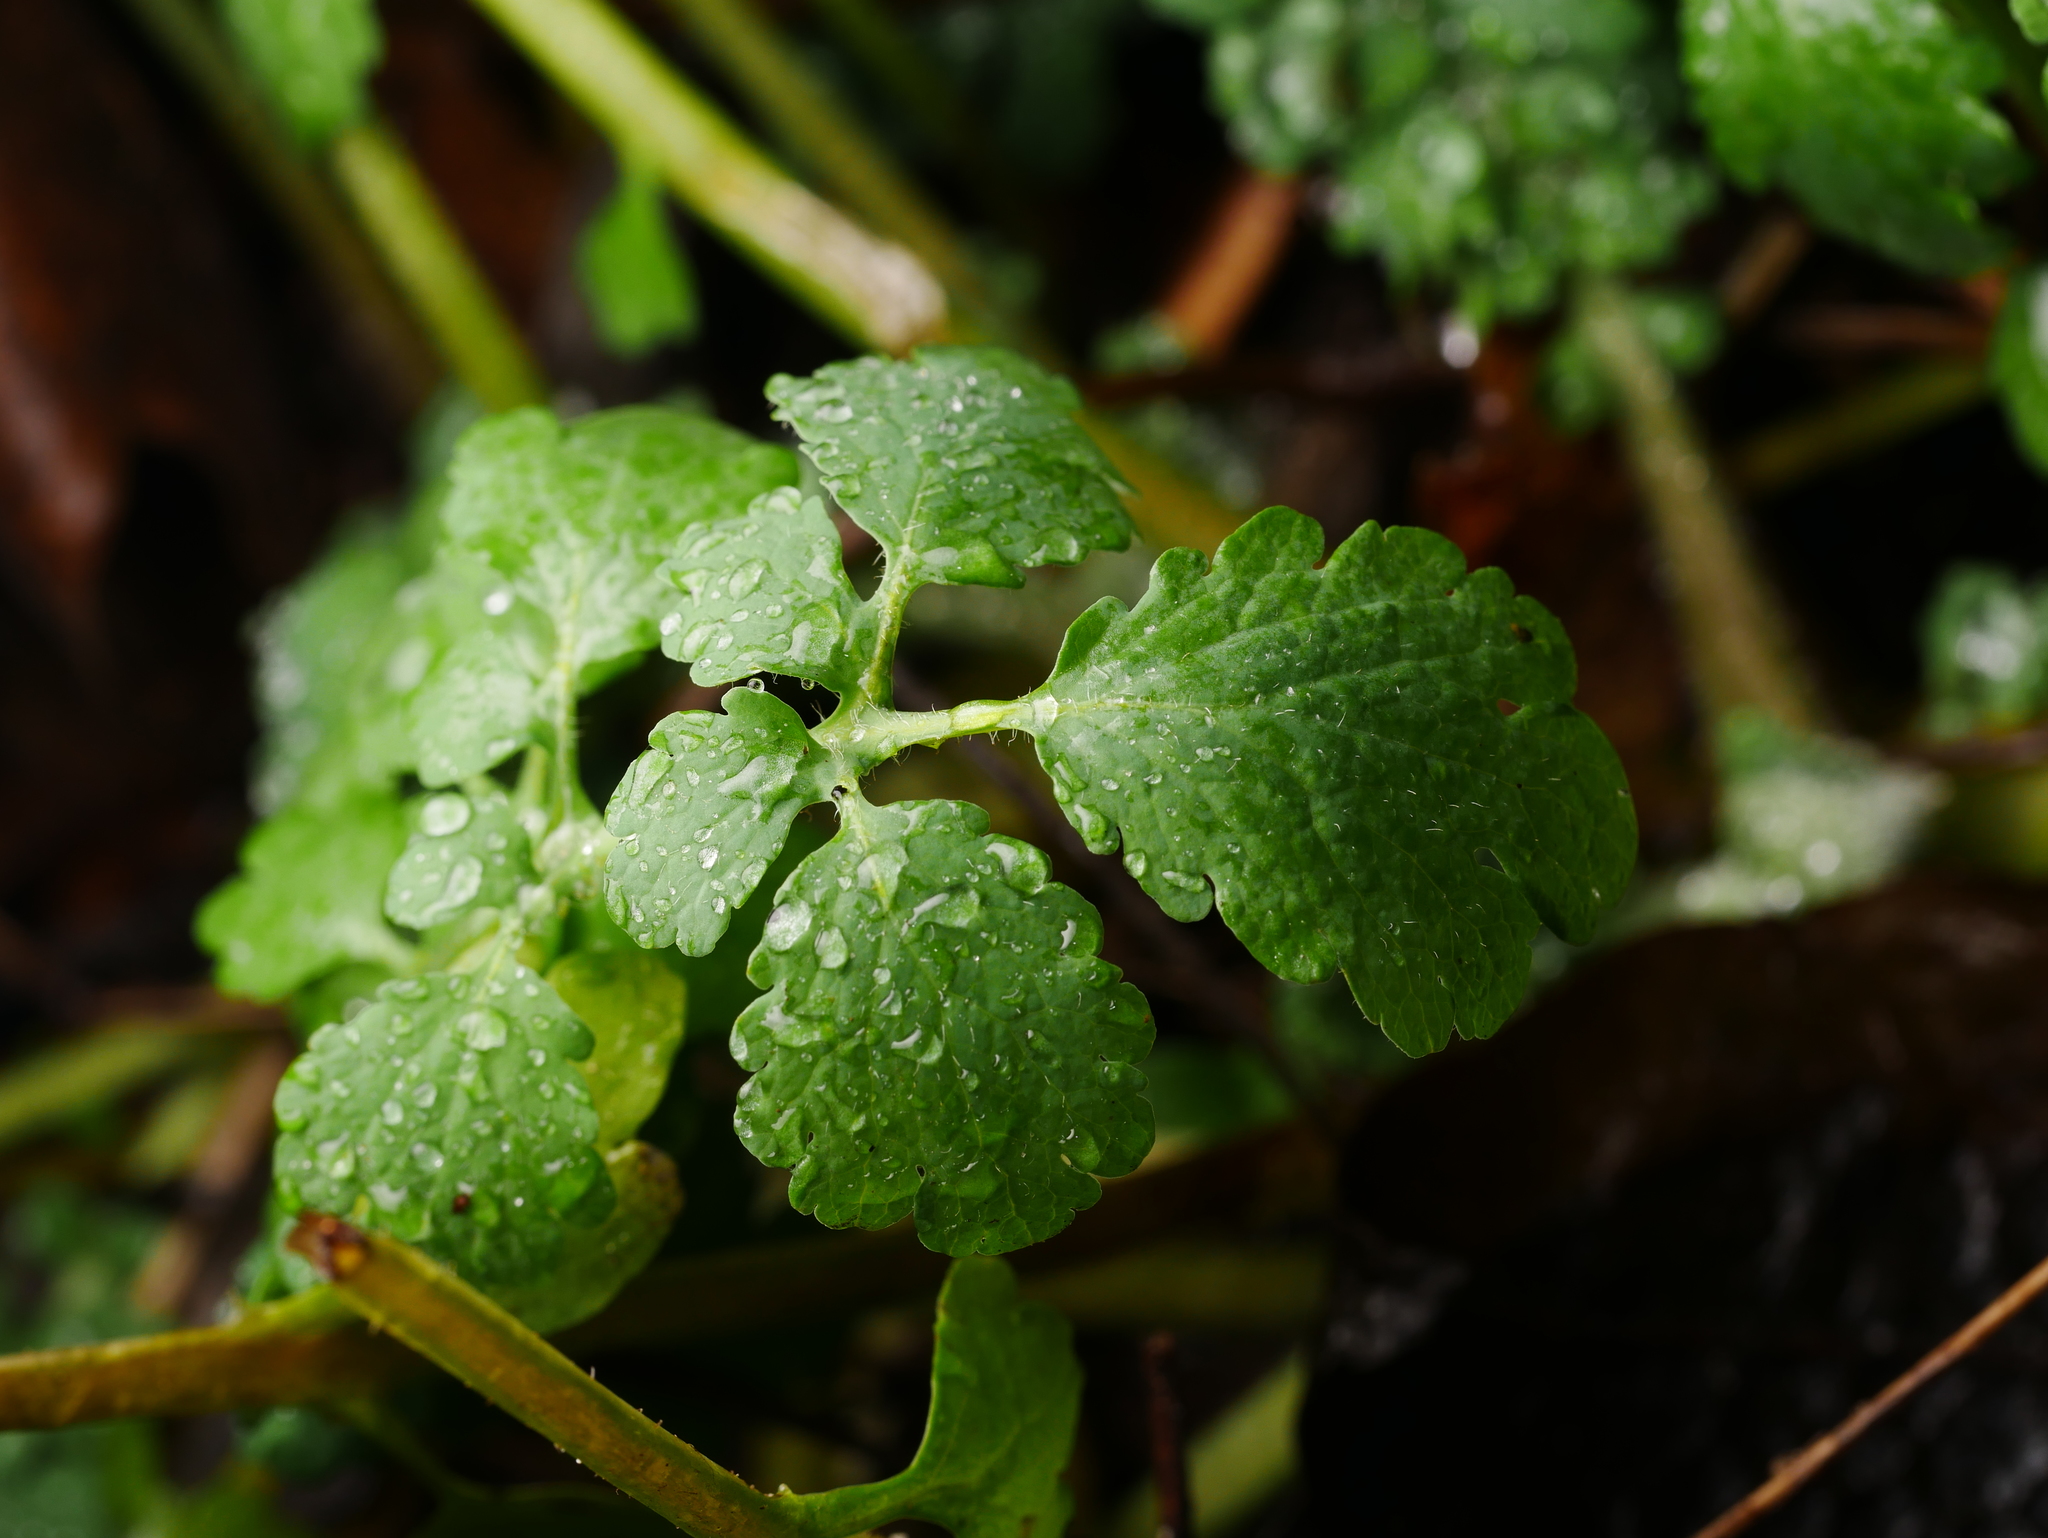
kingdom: Plantae
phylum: Tracheophyta
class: Magnoliopsida
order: Ranunculales
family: Papaveraceae
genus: Chelidonium
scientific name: Chelidonium majus
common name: Greater celandine
